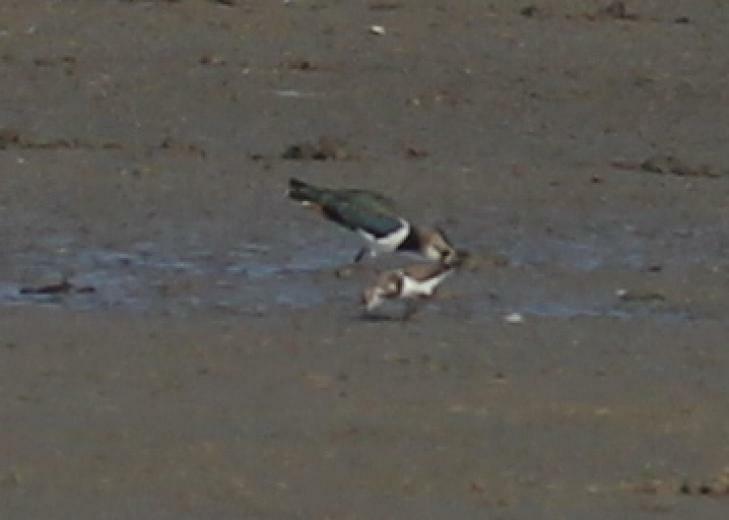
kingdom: Animalia
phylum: Chordata
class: Aves
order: Charadriiformes
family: Scolopacidae
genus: Arenaria
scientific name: Arenaria interpres
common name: Ruddy turnstone
